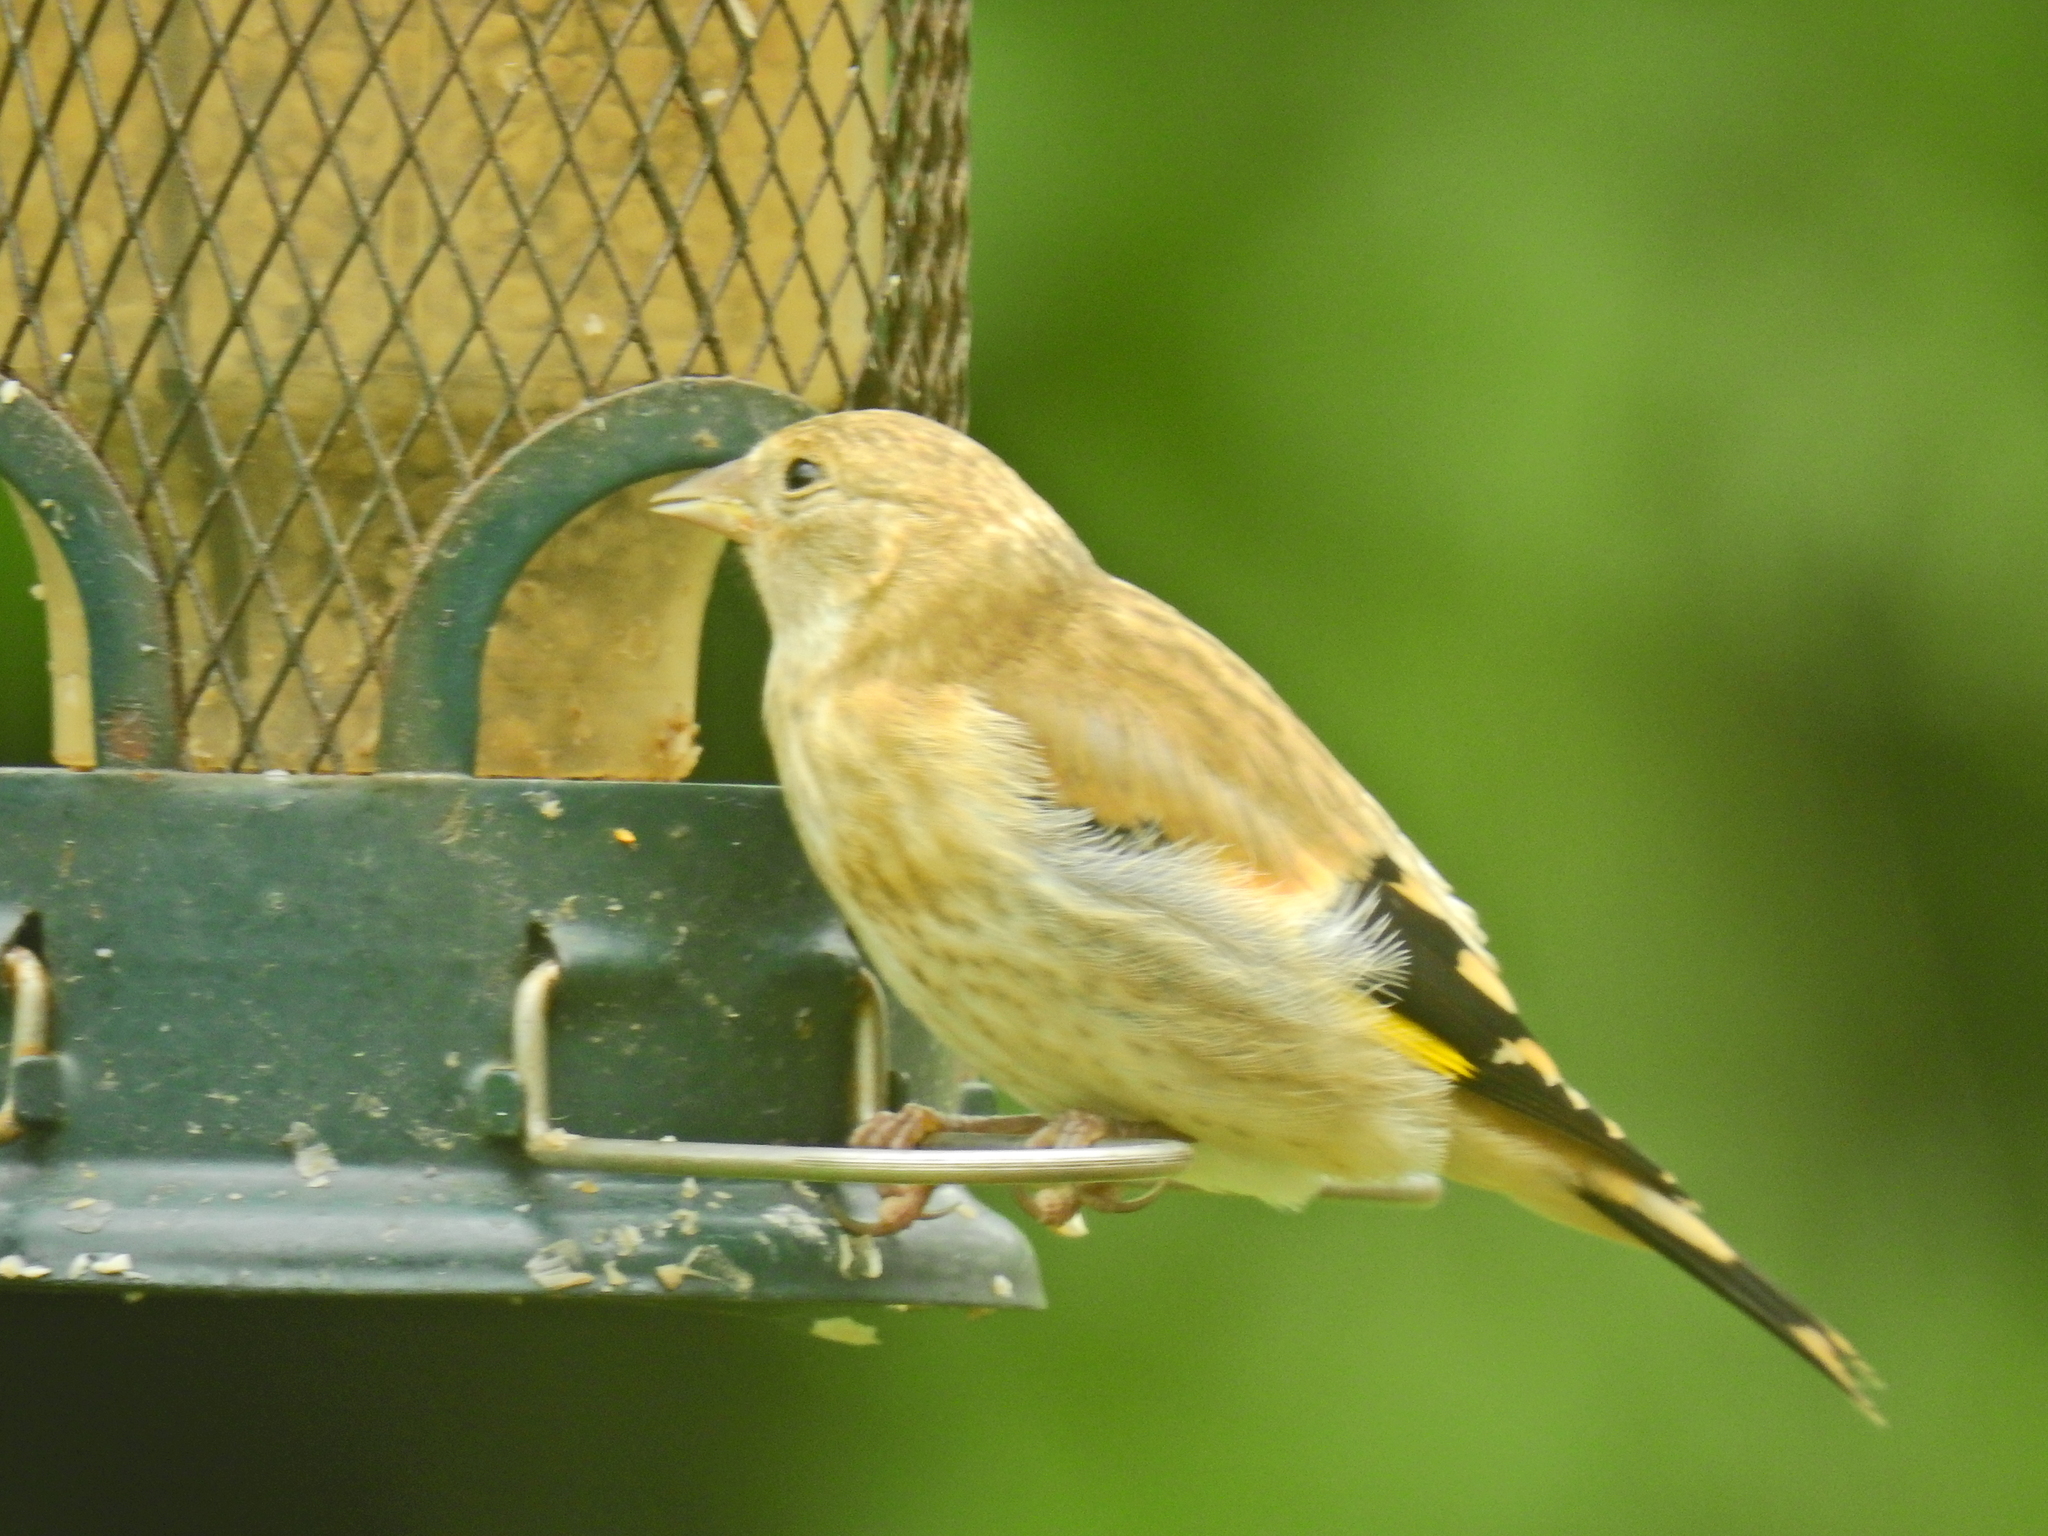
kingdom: Animalia
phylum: Chordata
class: Aves
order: Passeriformes
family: Fringillidae
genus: Carduelis
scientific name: Carduelis carduelis
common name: European goldfinch
